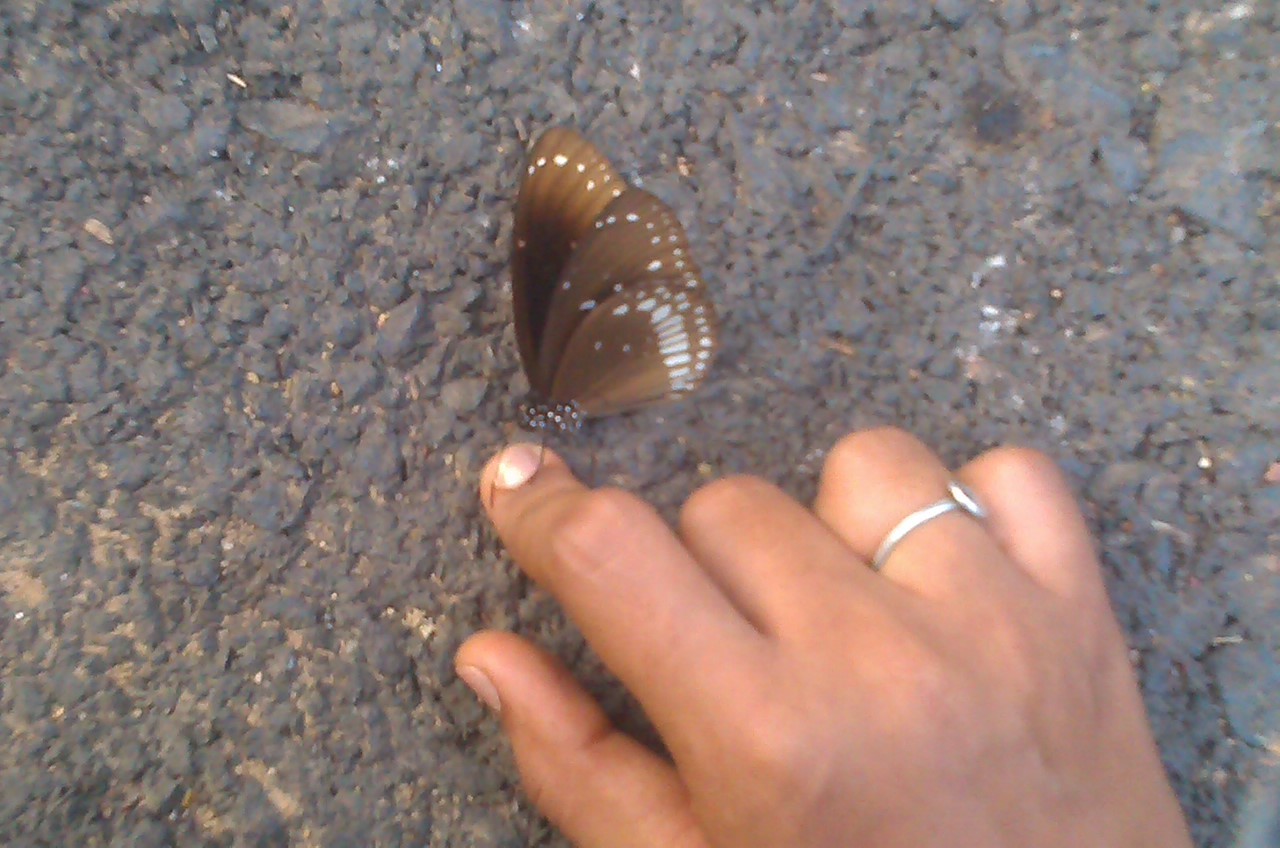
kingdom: Animalia
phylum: Arthropoda
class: Insecta
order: Lepidoptera
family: Nymphalidae
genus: Euploea
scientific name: Euploea core
